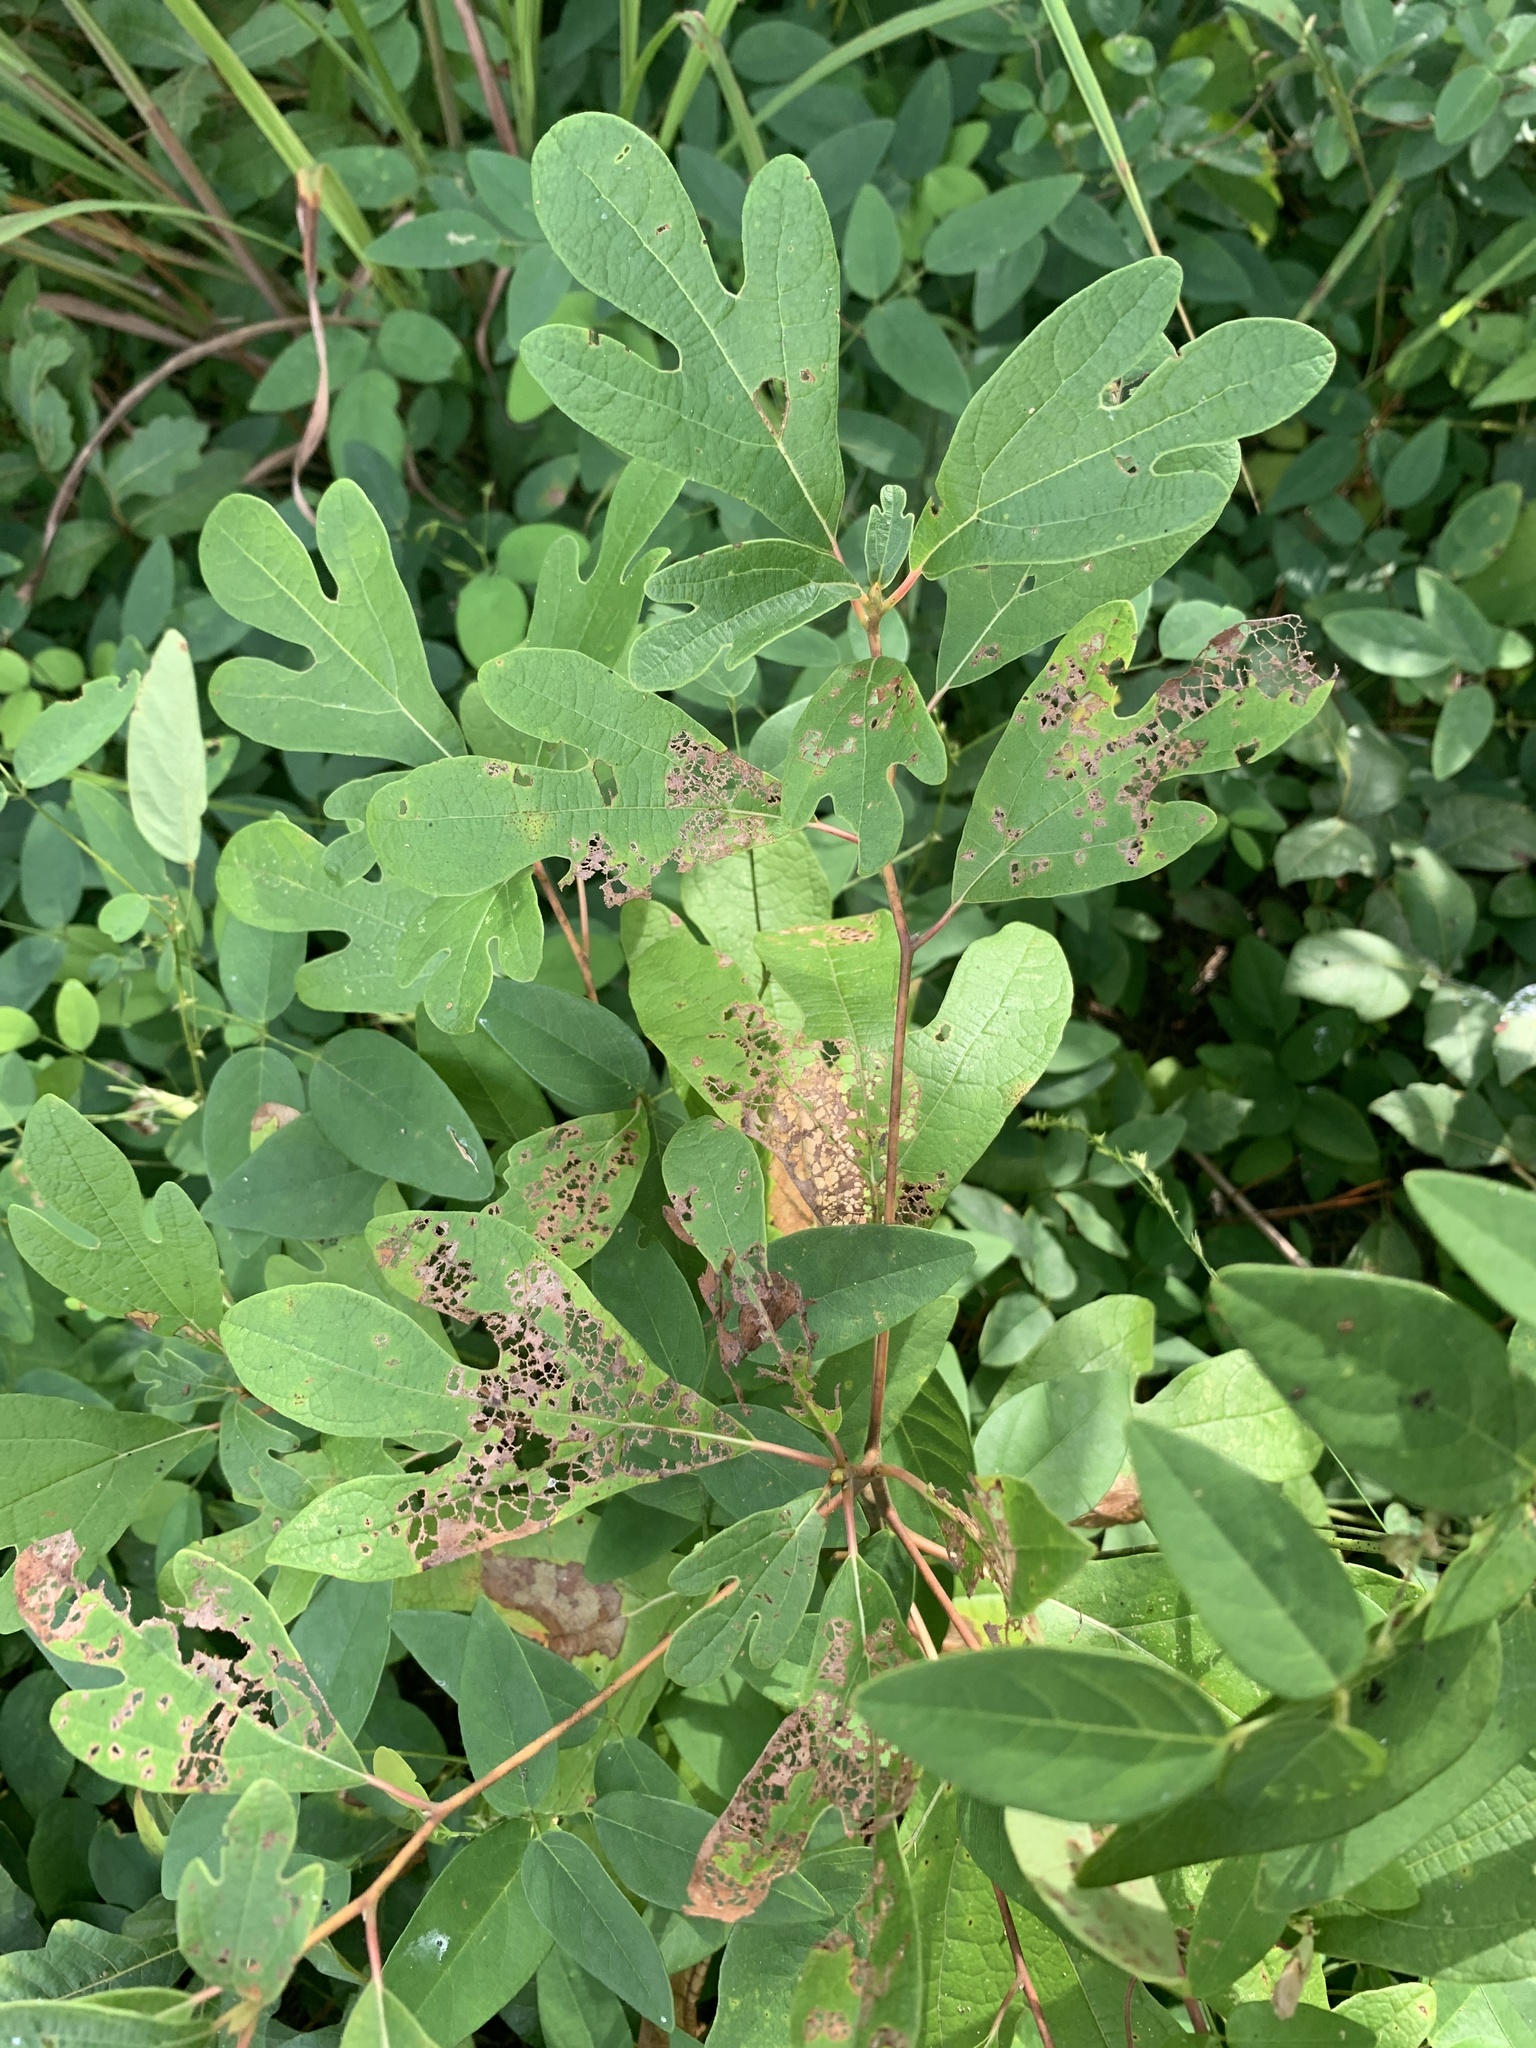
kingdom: Plantae
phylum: Tracheophyta
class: Magnoliopsida
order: Laurales
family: Lauraceae
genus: Sassafras
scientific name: Sassafras albidum
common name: Sassafras
